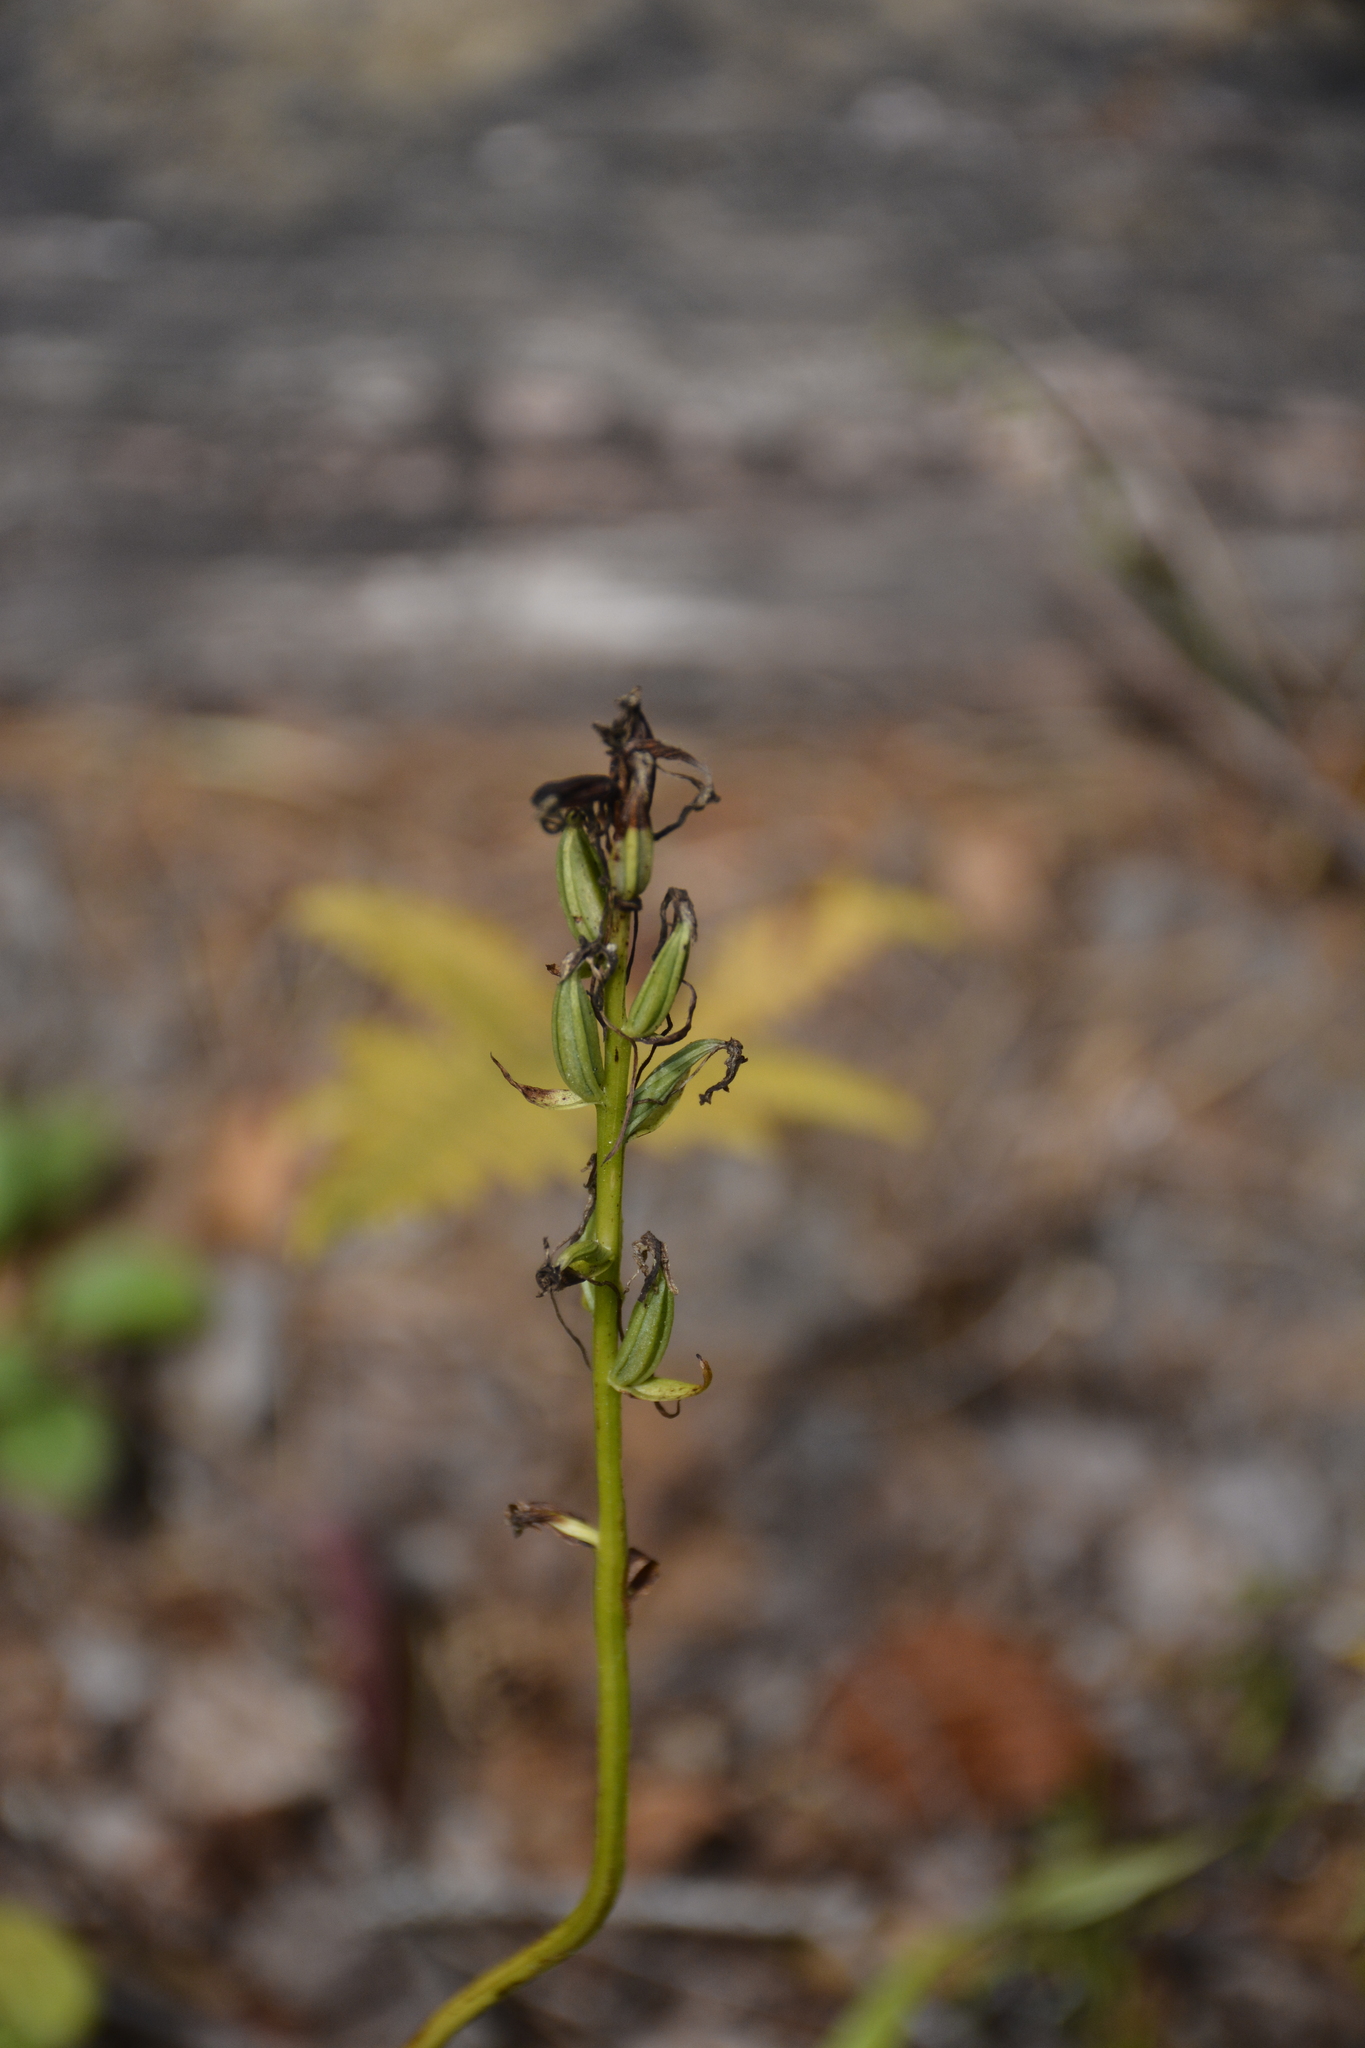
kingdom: Plantae
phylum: Tracheophyta
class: Liliopsida
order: Asparagales
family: Orchidaceae
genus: Platanthera
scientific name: Platanthera bifolia
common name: Lesser butterfly-orchid
